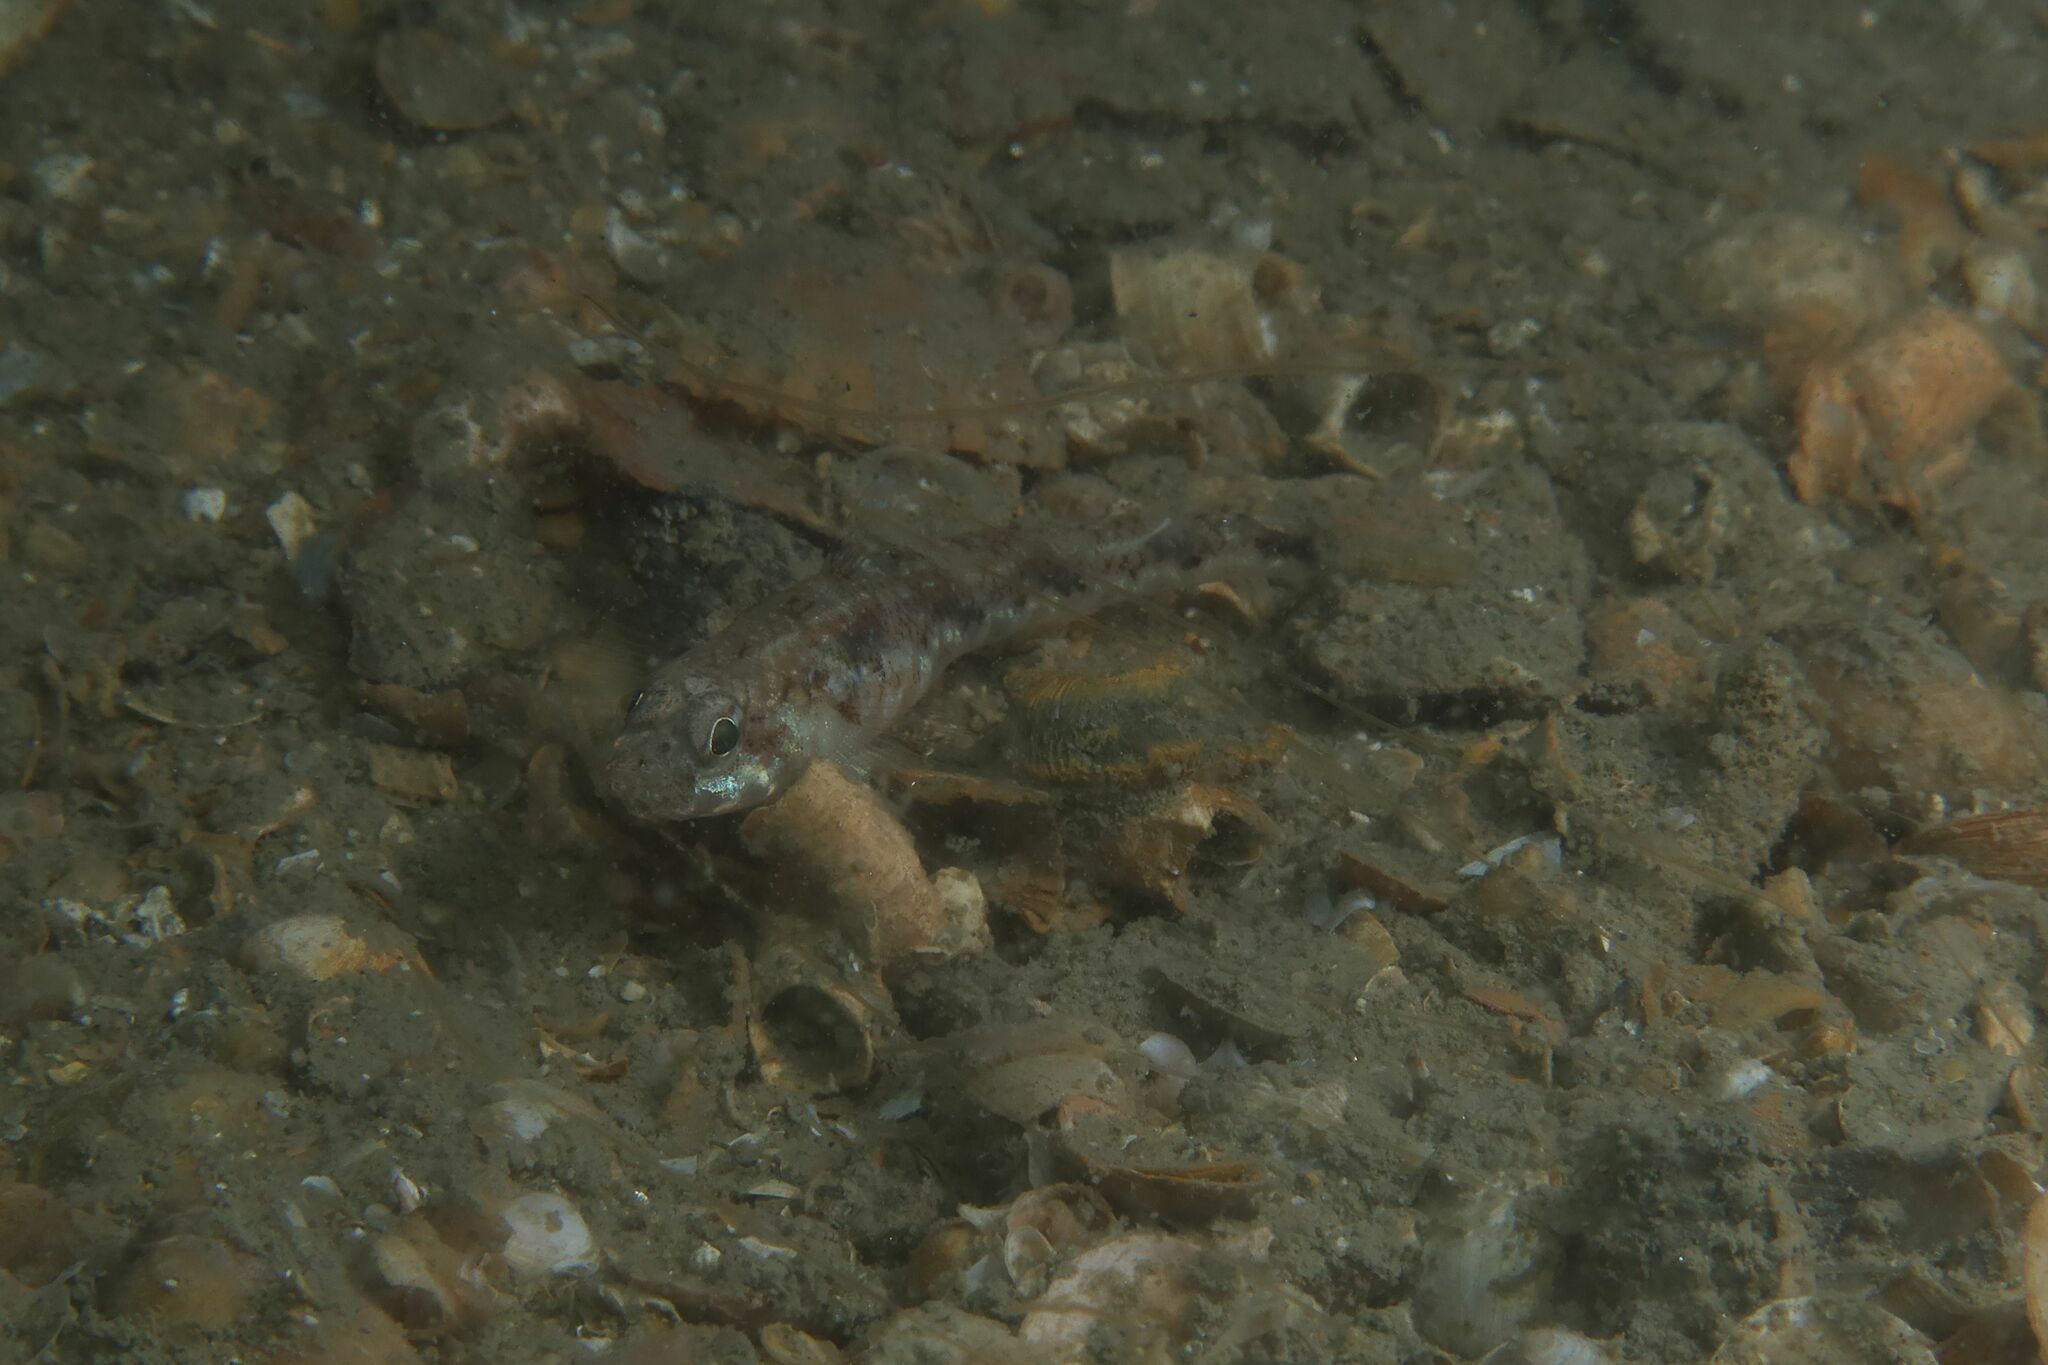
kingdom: Animalia
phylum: Chordata
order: Perciformes
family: Gobiidae
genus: Pomatoschistus
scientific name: Pomatoschistus pictus
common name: Painted goby
